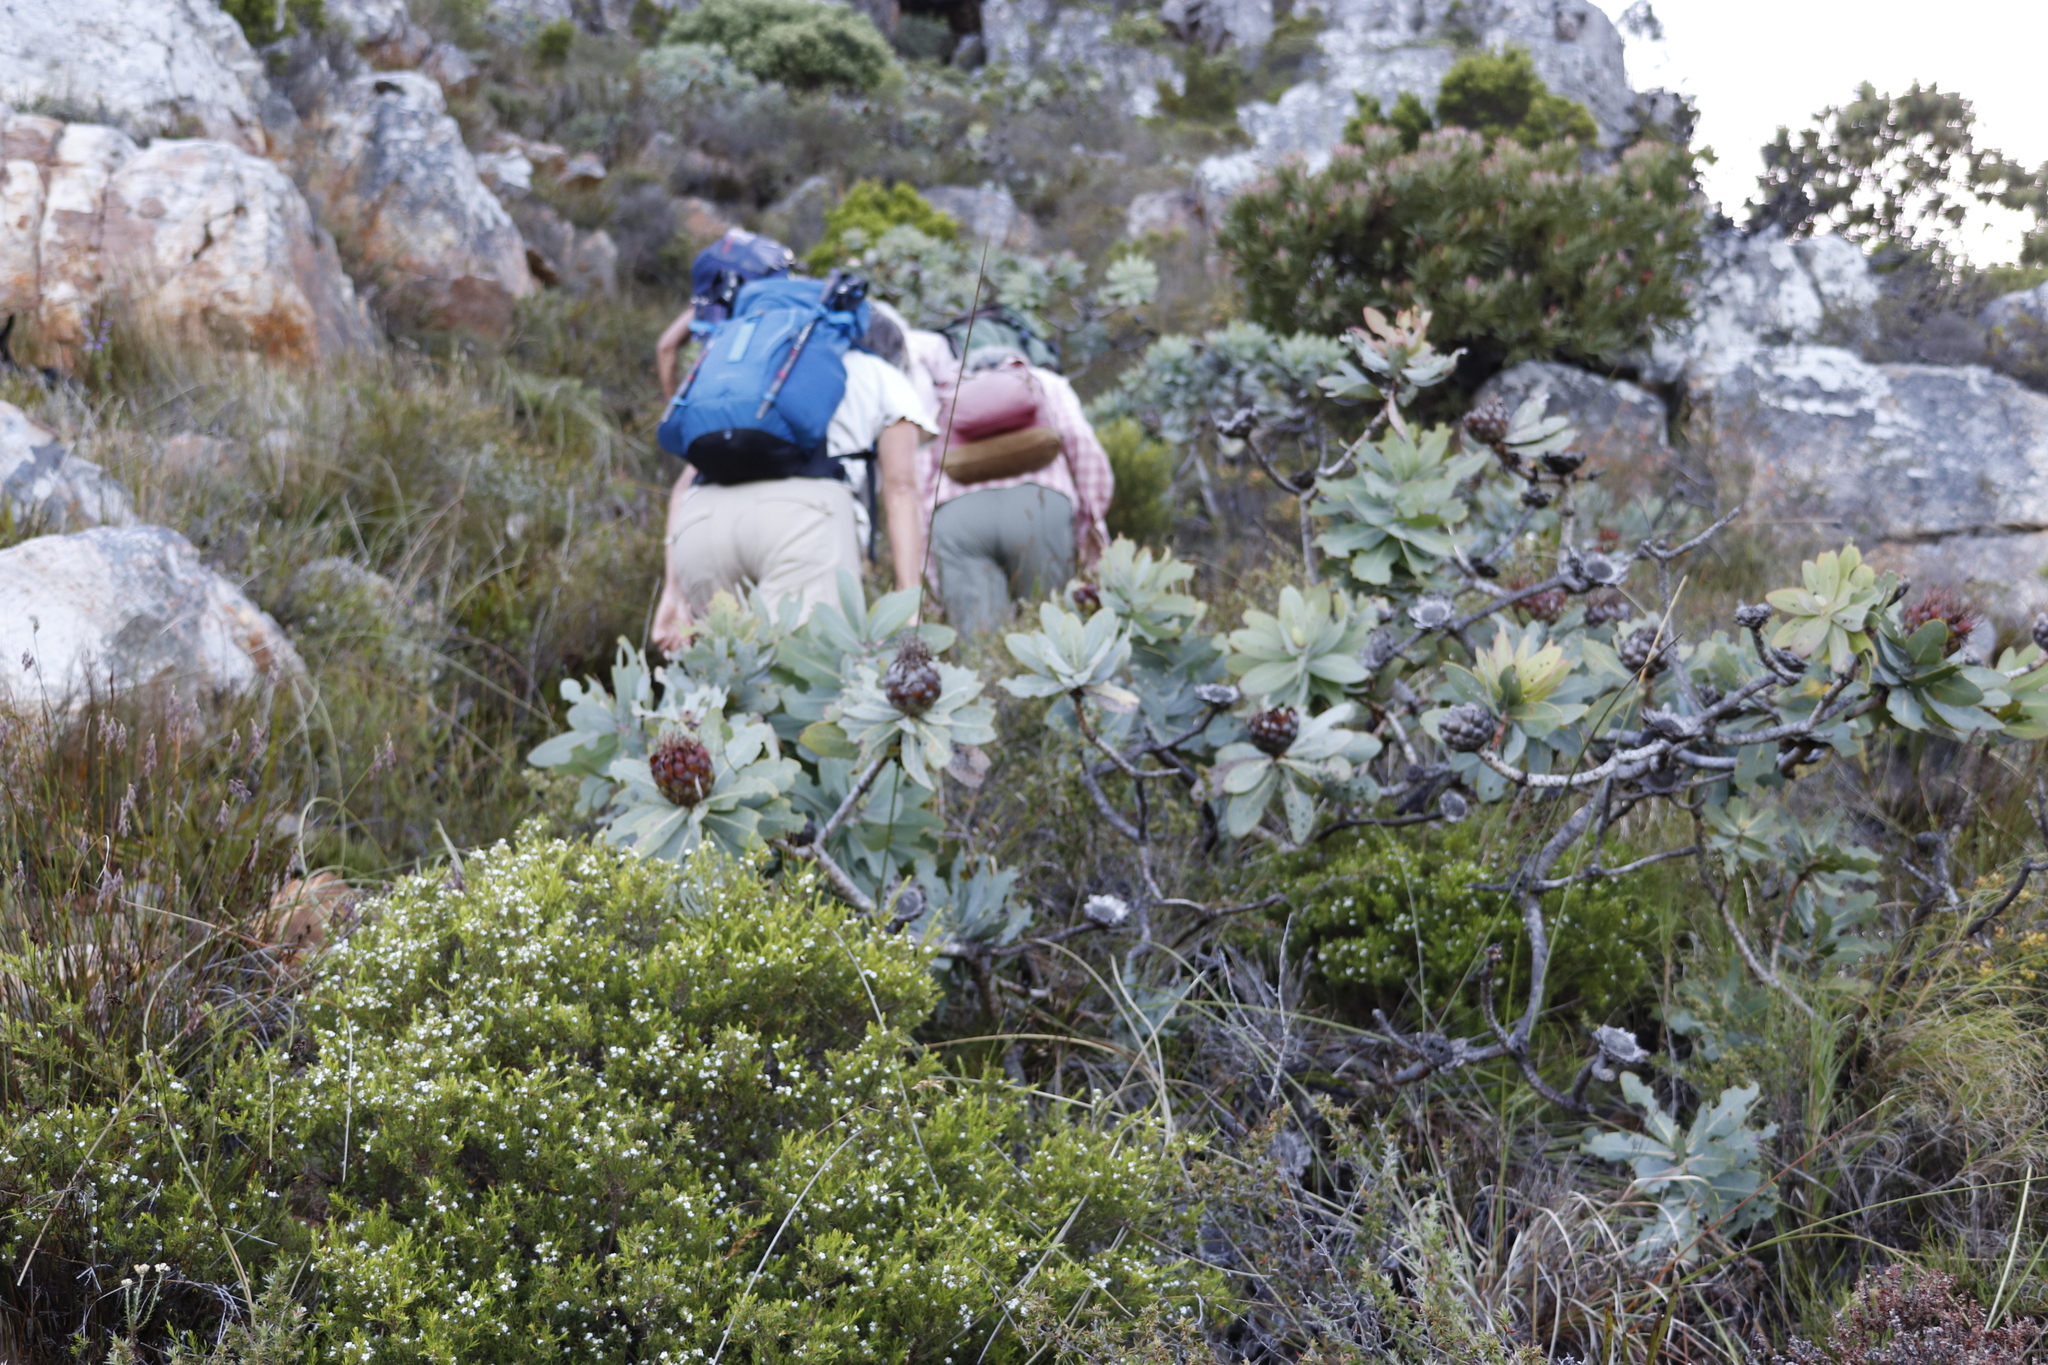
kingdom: Plantae
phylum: Tracheophyta
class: Magnoliopsida
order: Proteales
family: Proteaceae
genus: Protea
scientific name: Protea nitida
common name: Tree protea
